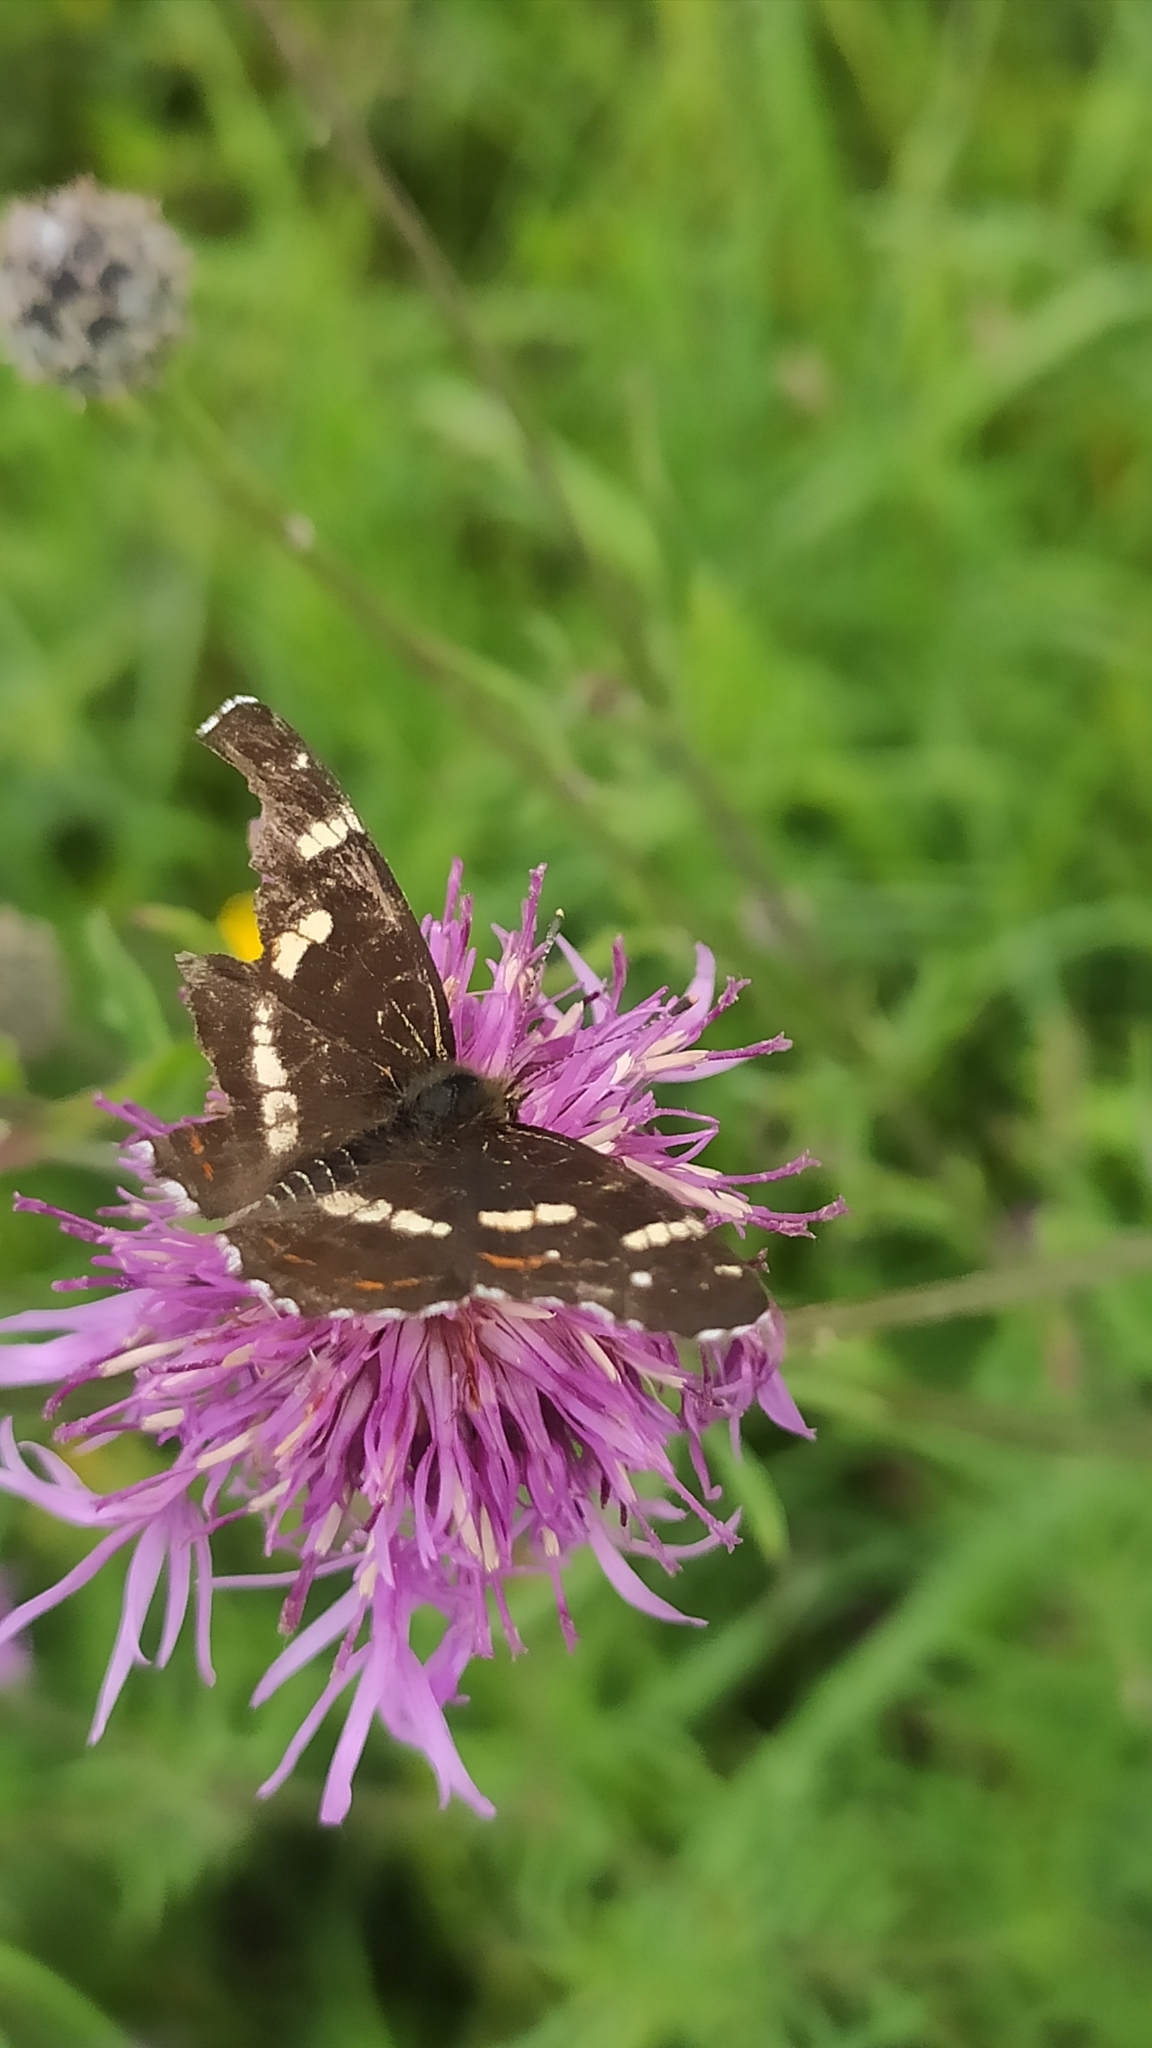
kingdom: Animalia
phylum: Arthropoda
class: Insecta
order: Lepidoptera
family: Nymphalidae
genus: Araschnia
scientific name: Araschnia levana
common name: Map butterfly
